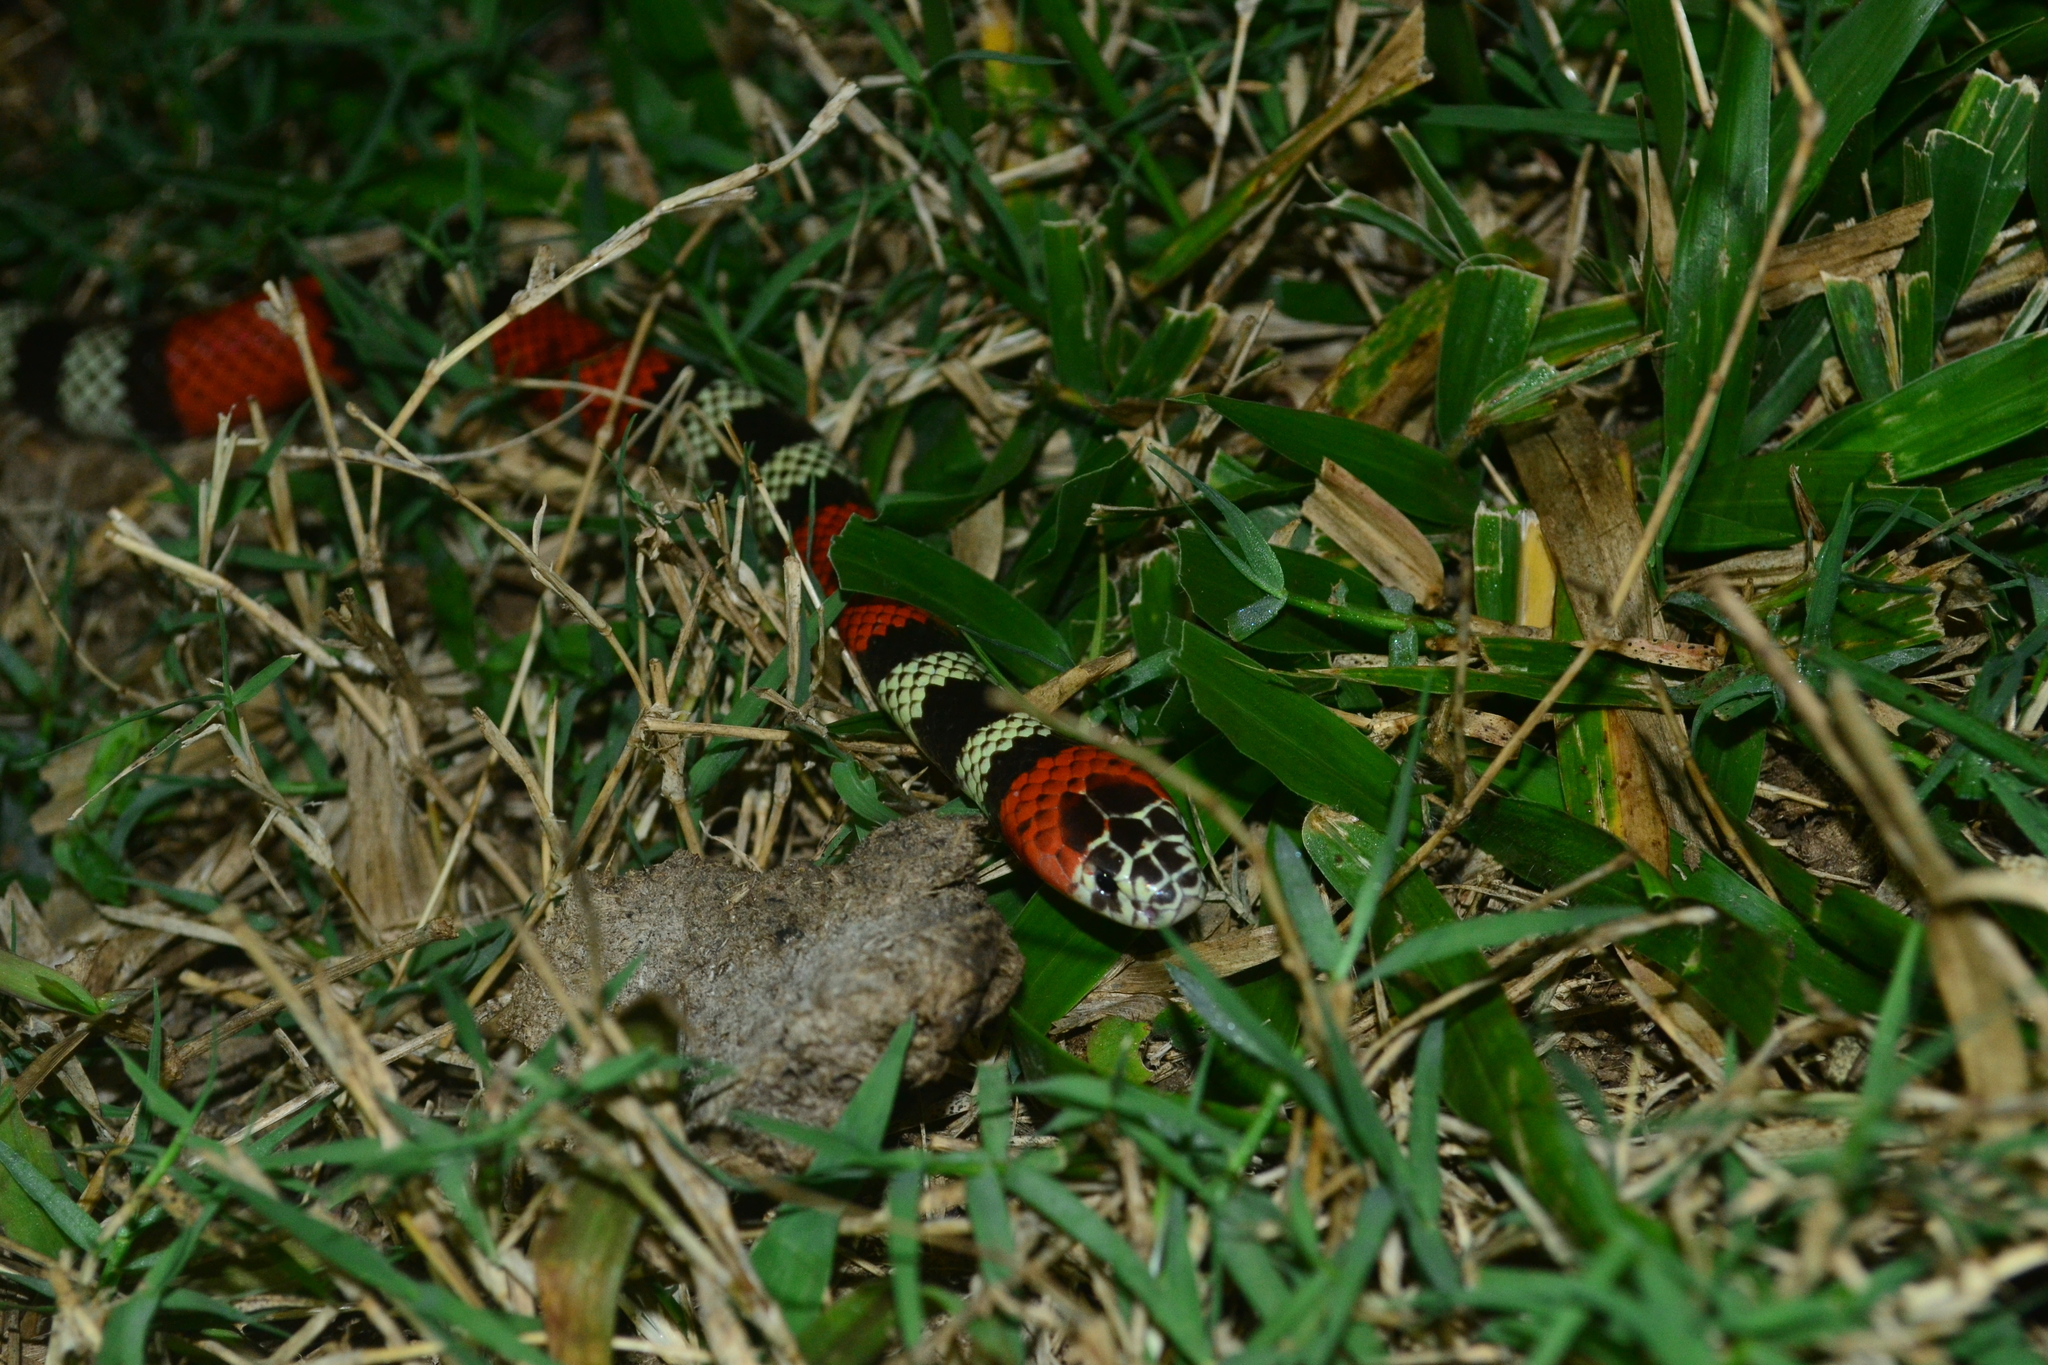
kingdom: Animalia
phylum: Chordata
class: Squamata
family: Elapidae
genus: Micrurus
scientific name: Micrurus frontalis
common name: Southern coral snake
